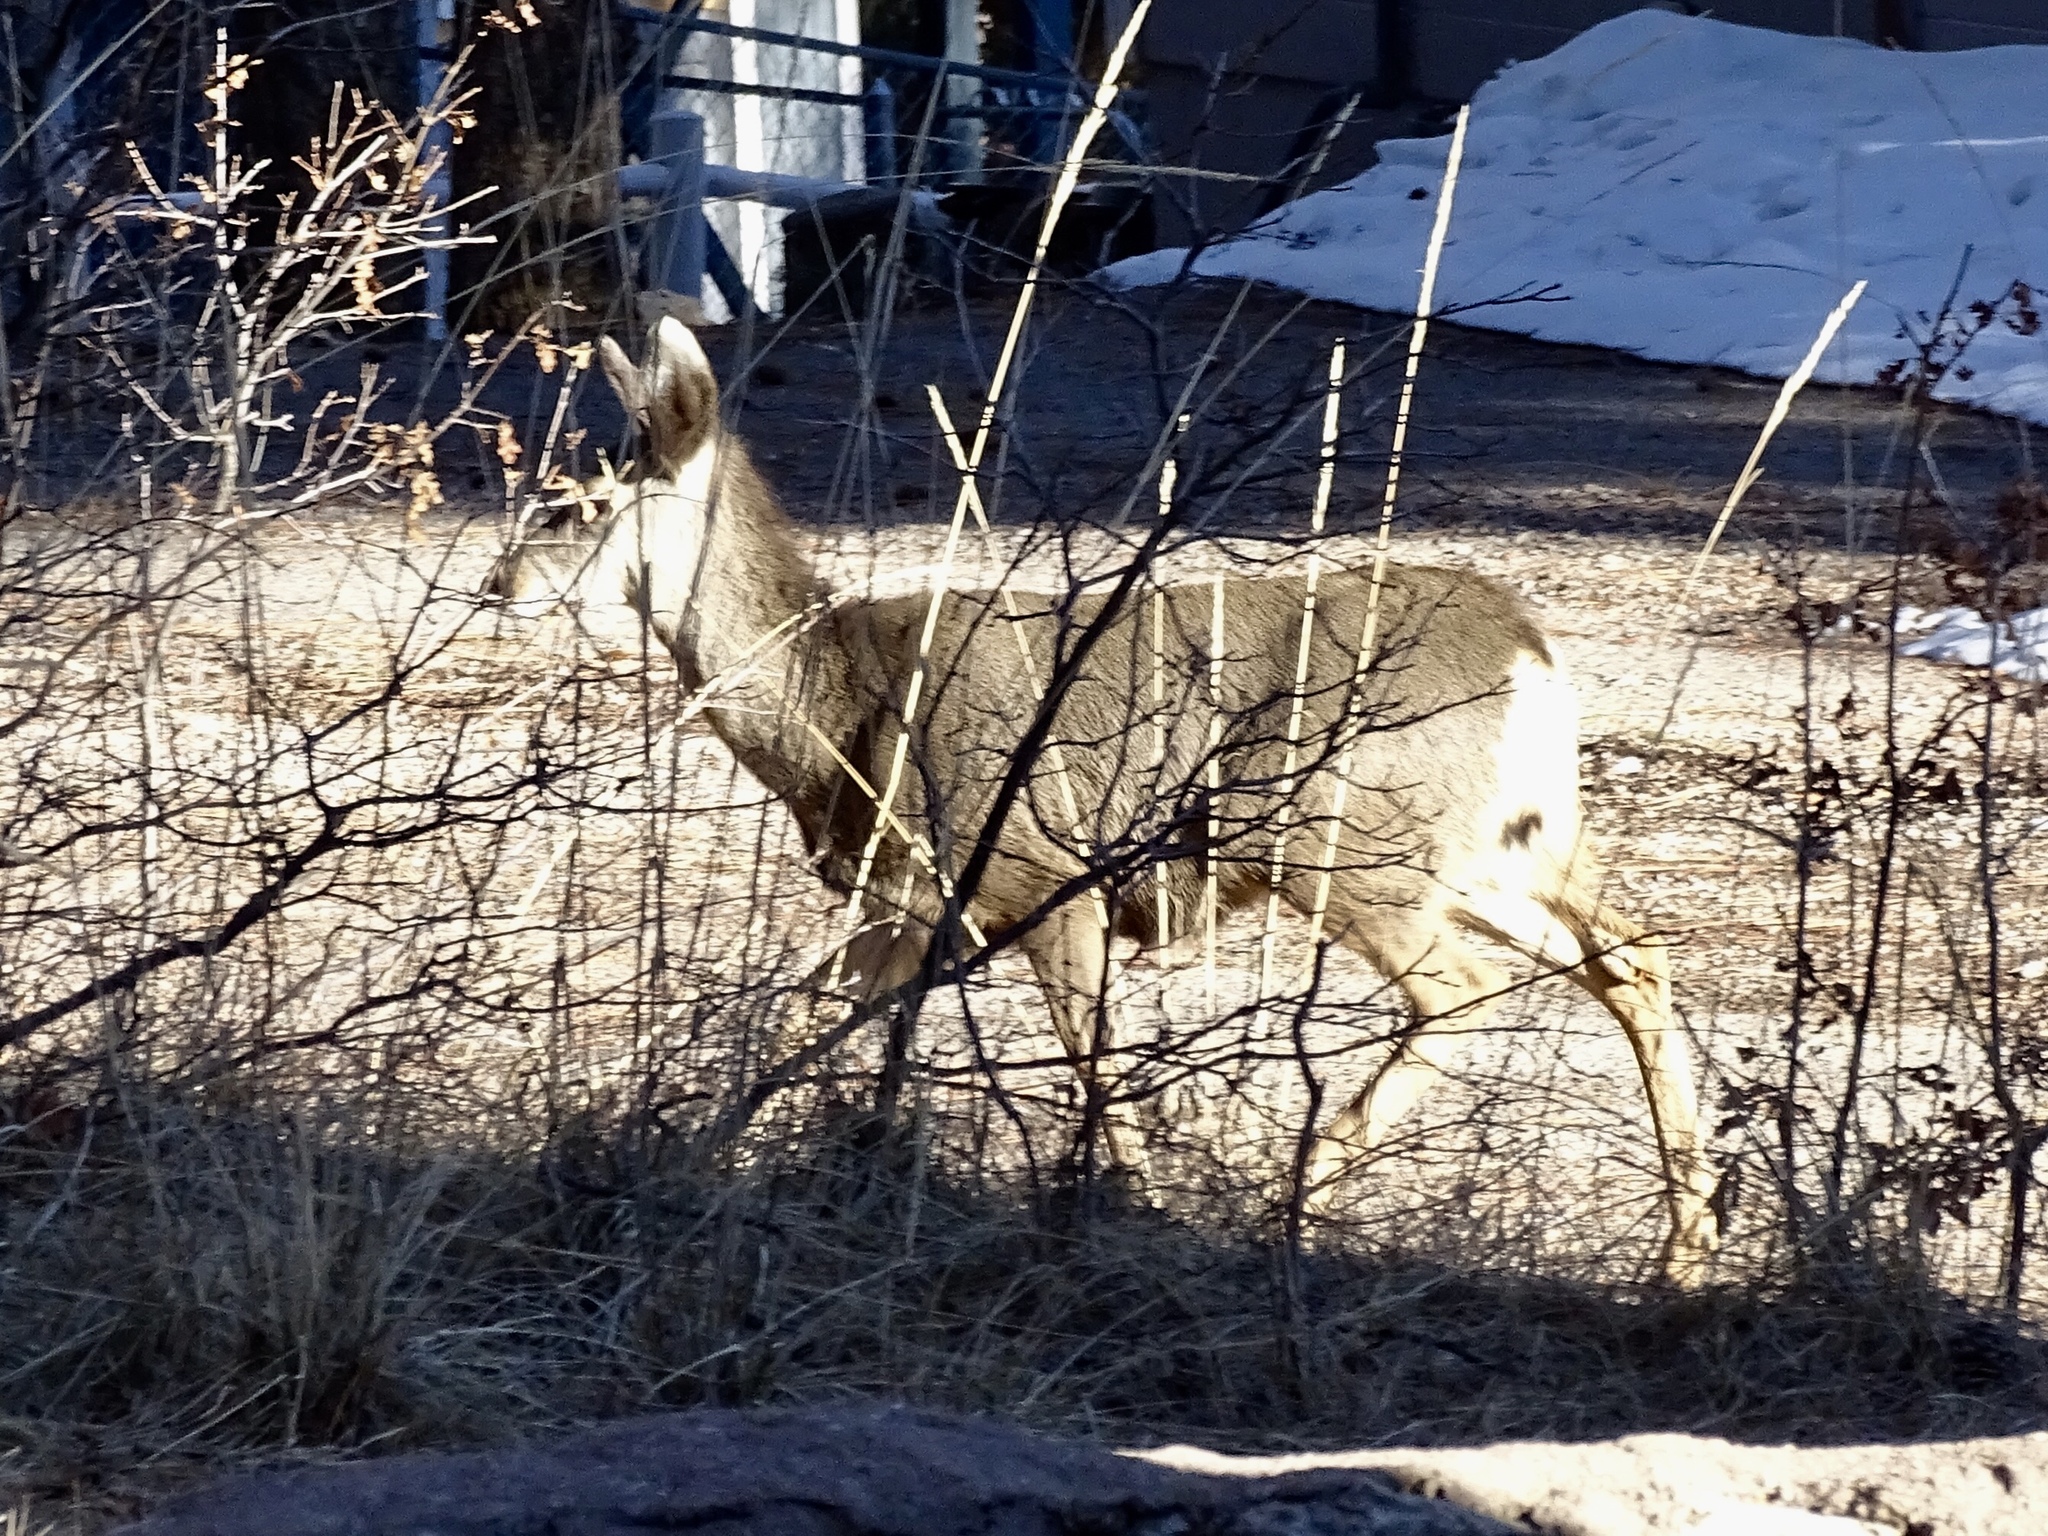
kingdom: Animalia
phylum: Chordata
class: Mammalia
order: Artiodactyla
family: Cervidae
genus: Odocoileus
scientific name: Odocoileus hemionus
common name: Mule deer
